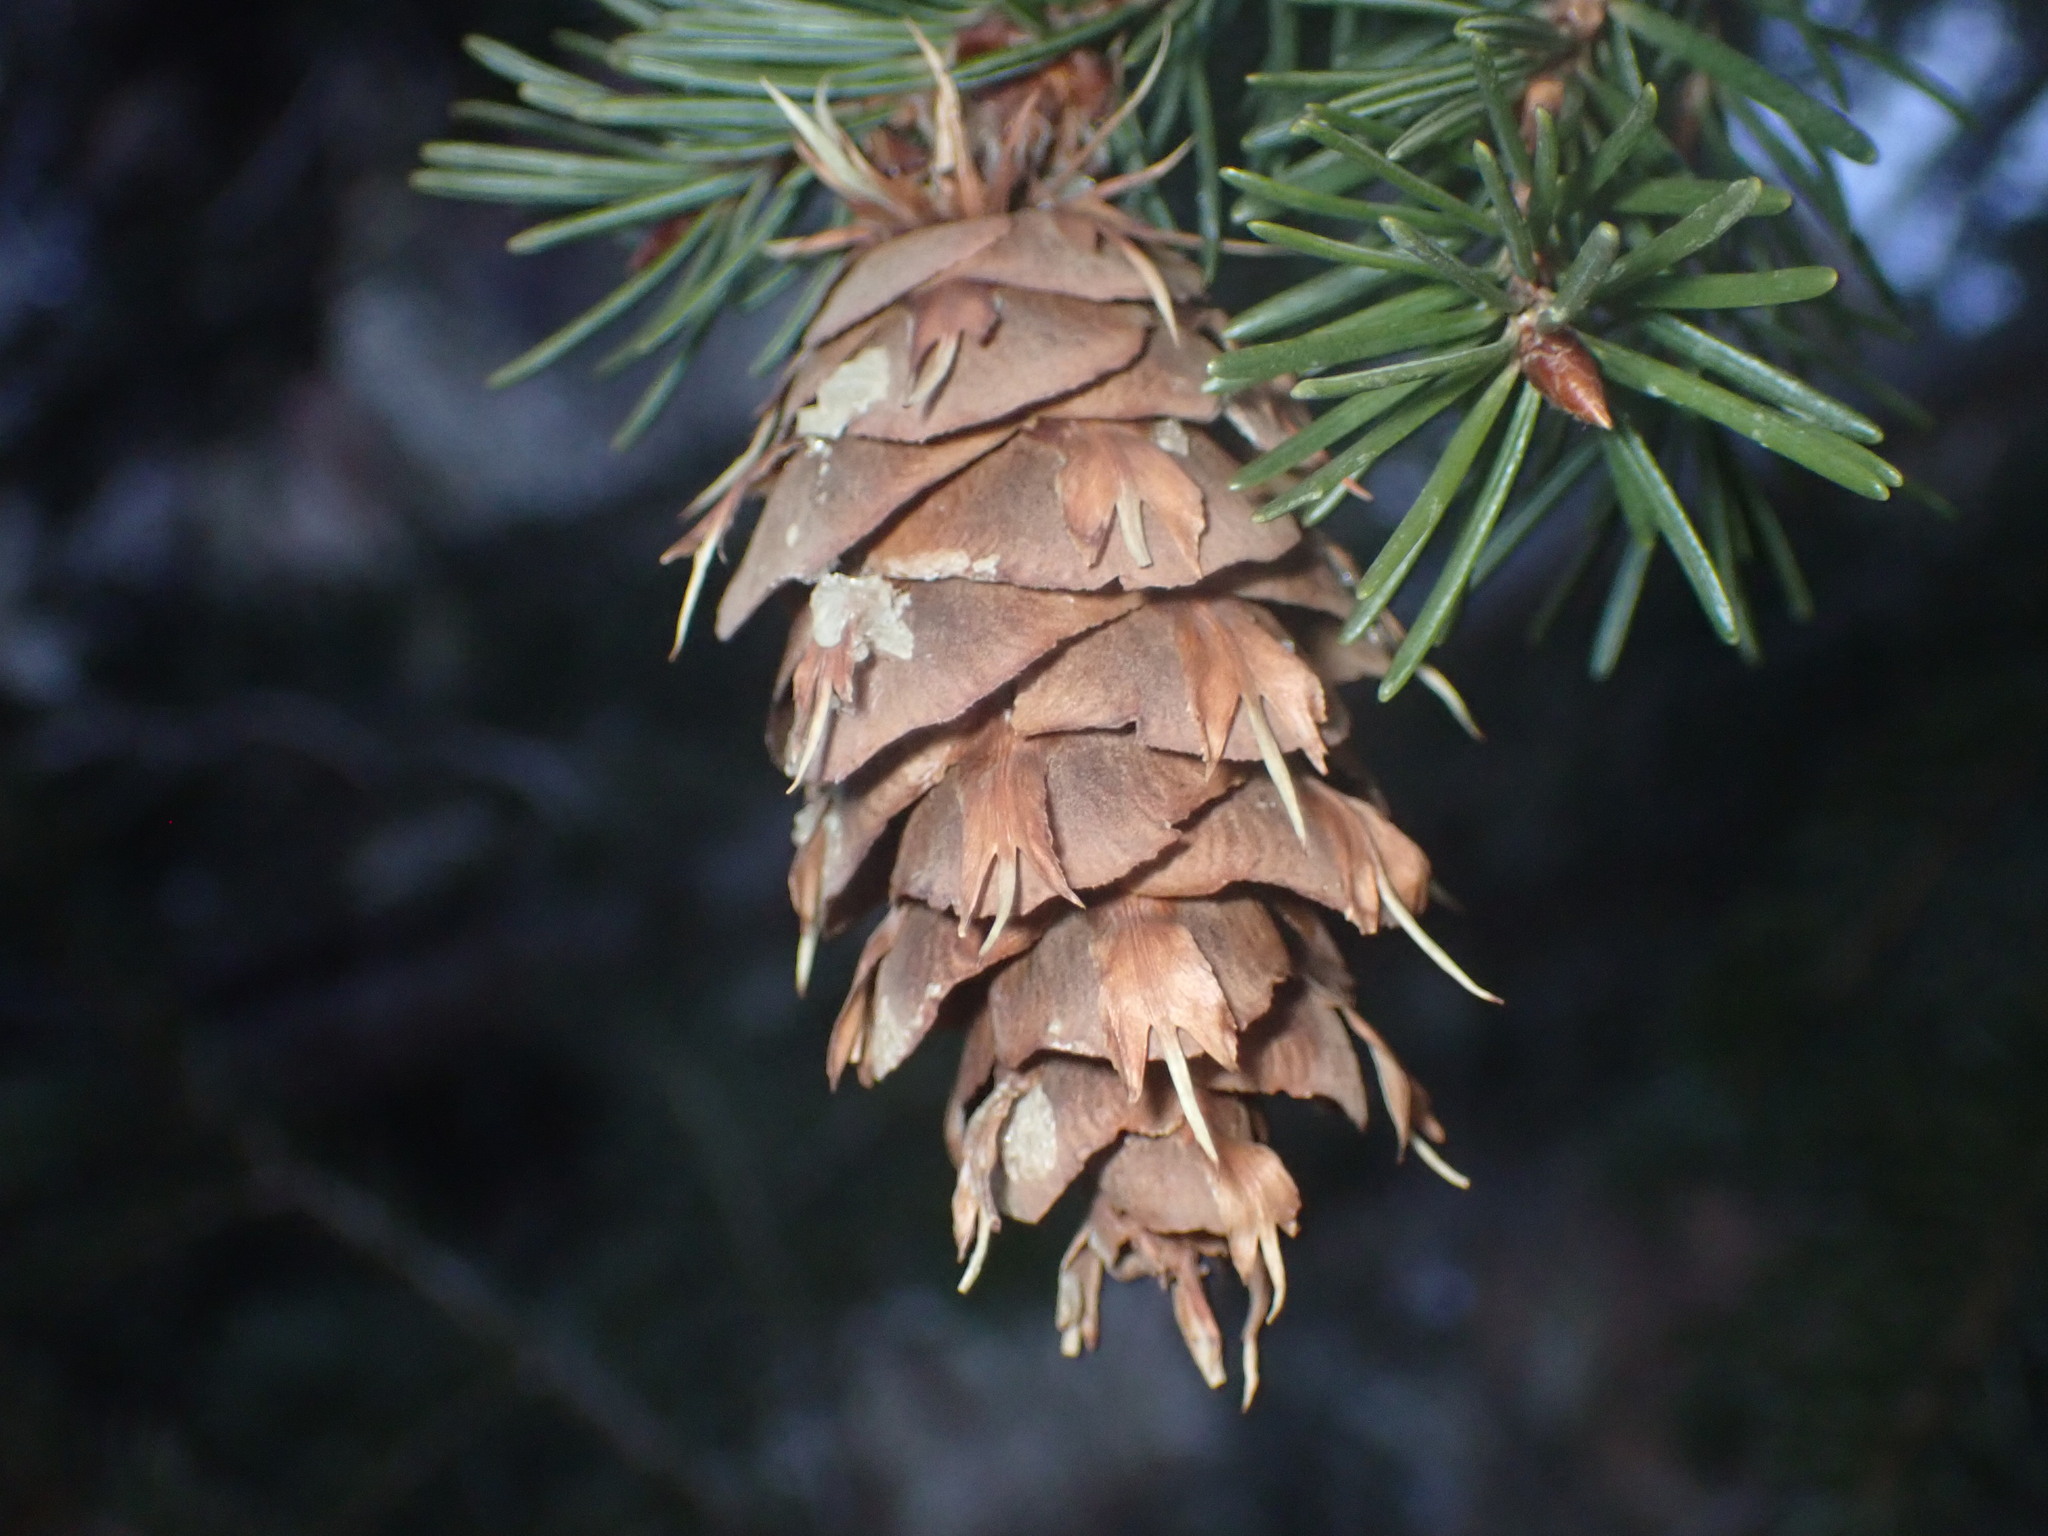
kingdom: Plantae
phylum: Tracheophyta
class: Pinopsida
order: Pinales
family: Pinaceae
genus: Pseudotsuga
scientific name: Pseudotsuga menziesii
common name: Douglas fir
